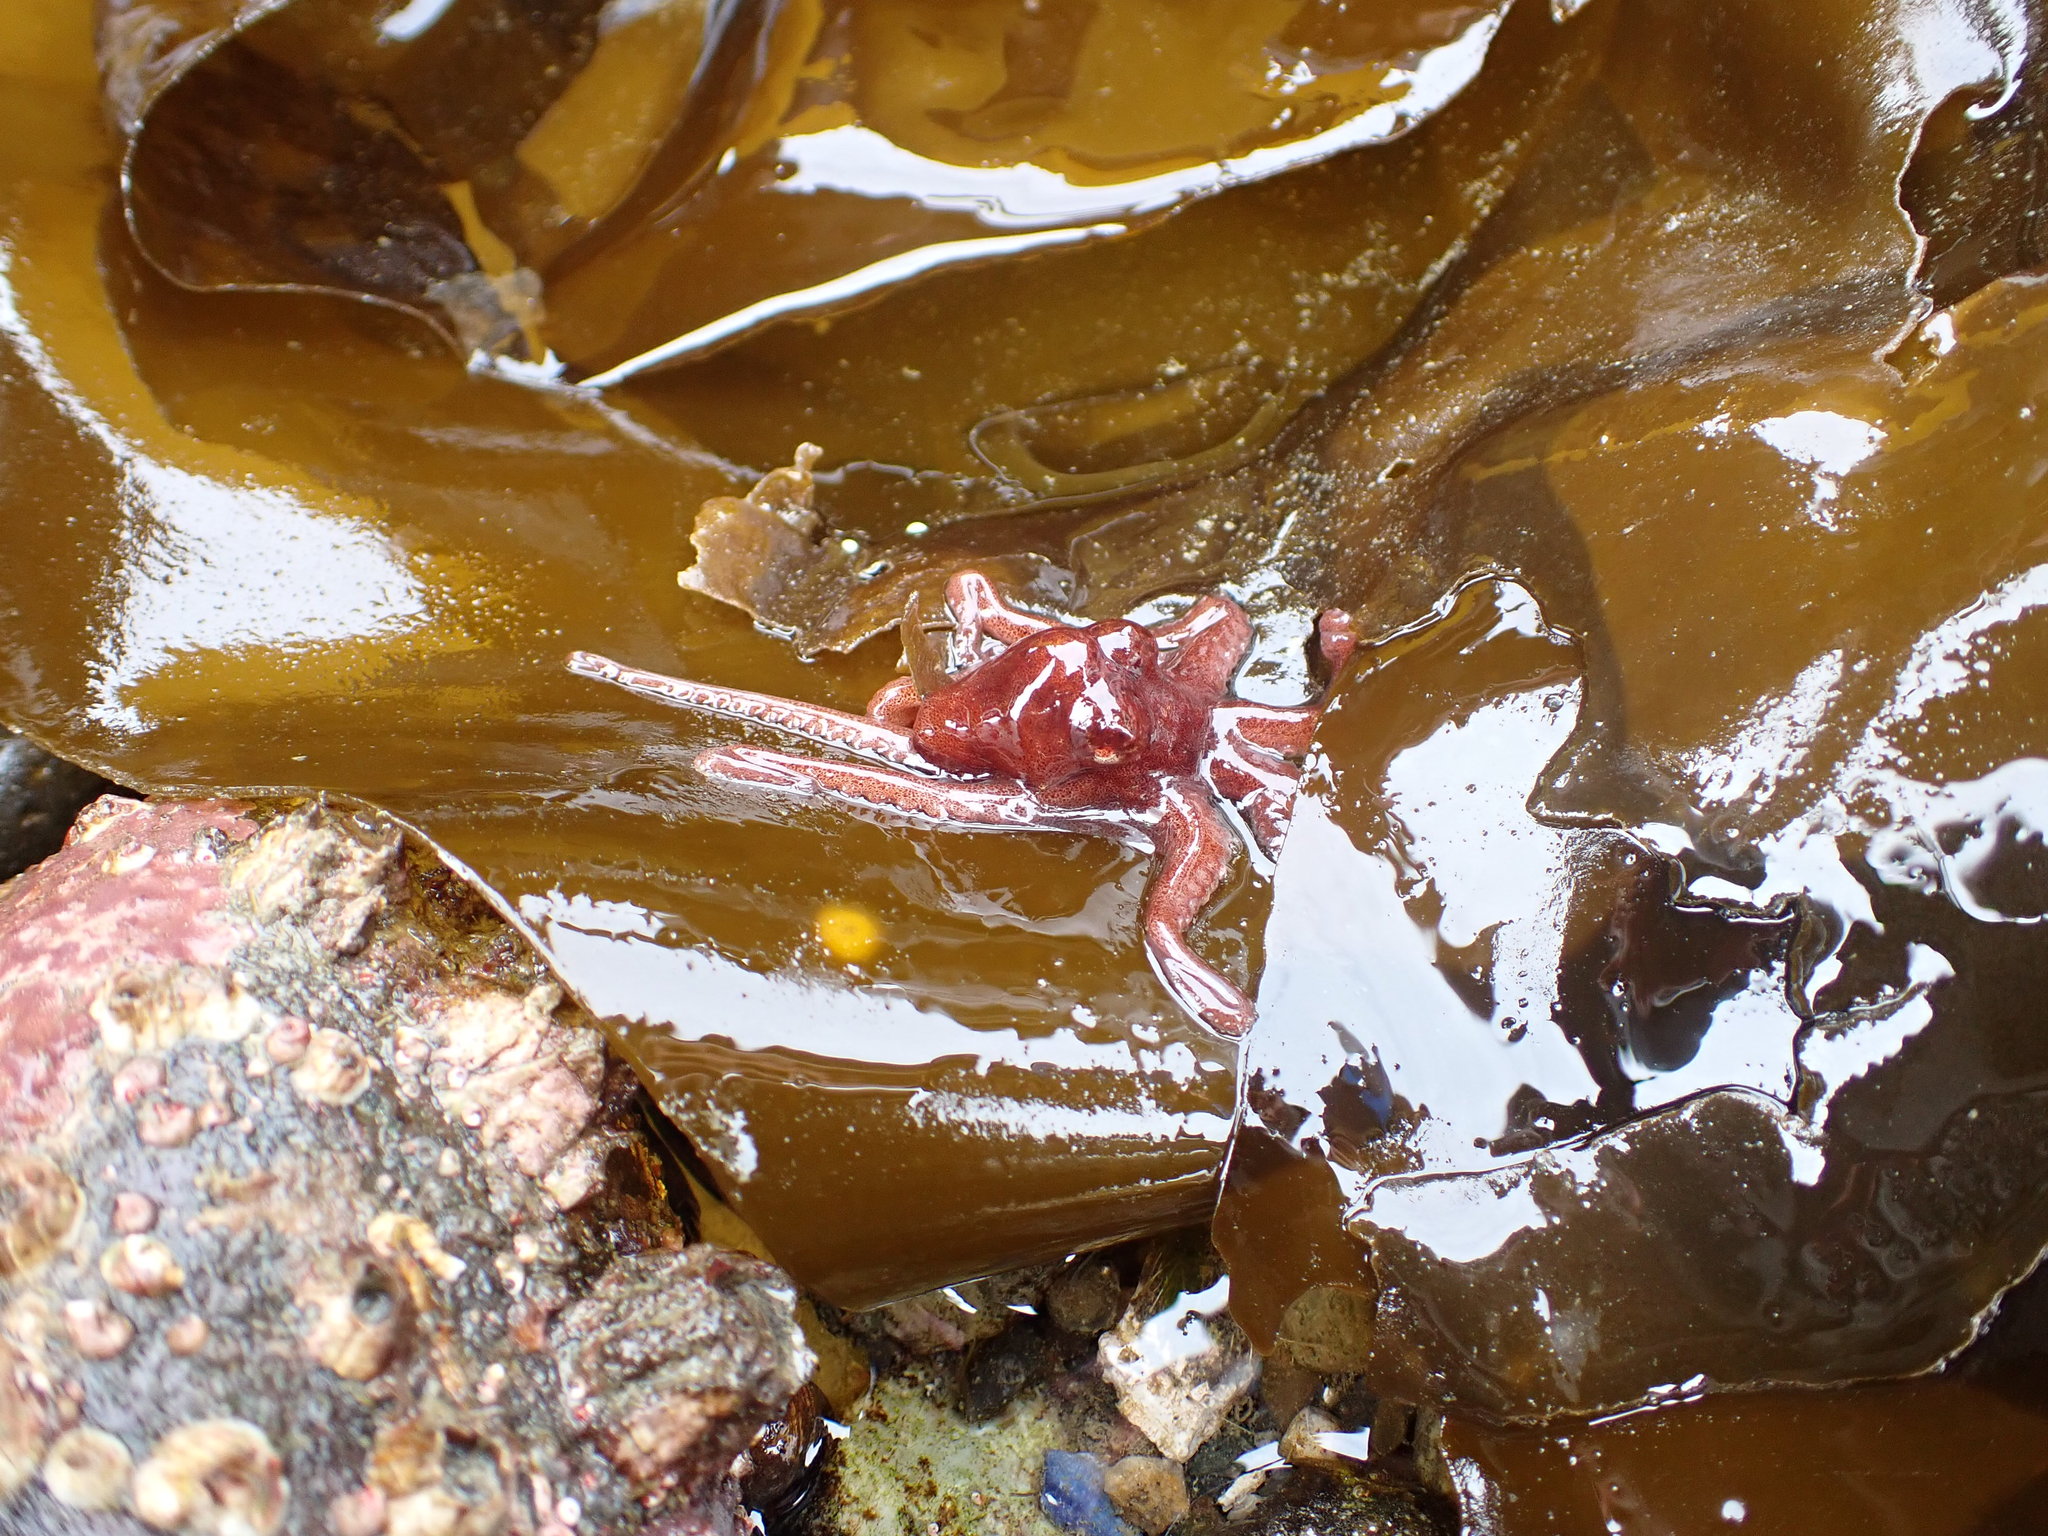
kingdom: Animalia
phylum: Mollusca
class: Cephalopoda
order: Octopoda
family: Enteroctopodidae
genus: Enteroctopus
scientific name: Enteroctopus dofleini
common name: Giant north pacific octopus
